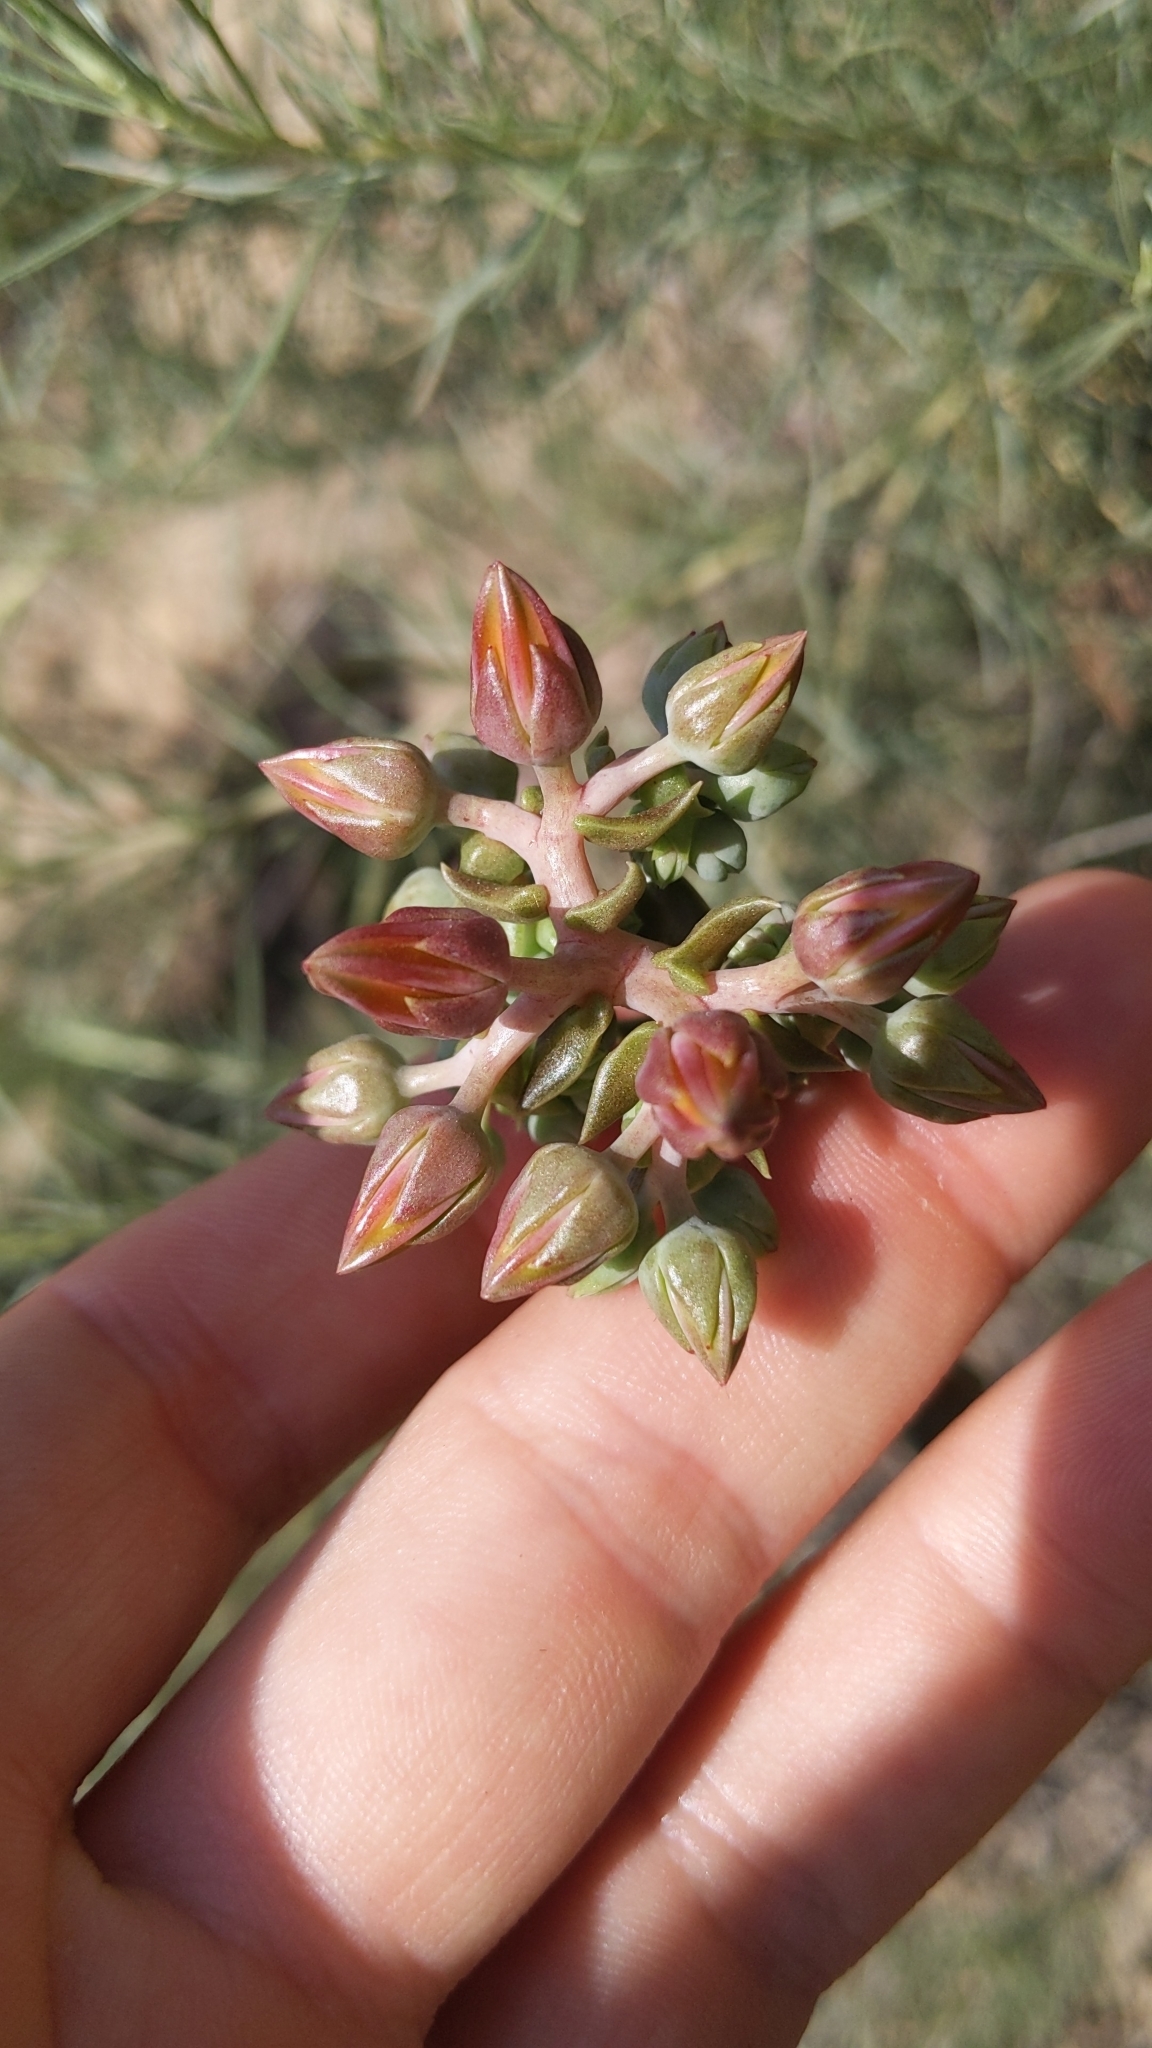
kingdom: Plantae
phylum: Tracheophyta
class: Magnoliopsida
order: Saxifragales
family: Crassulaceae
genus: Dudleya
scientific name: Dudleya lanceolata
